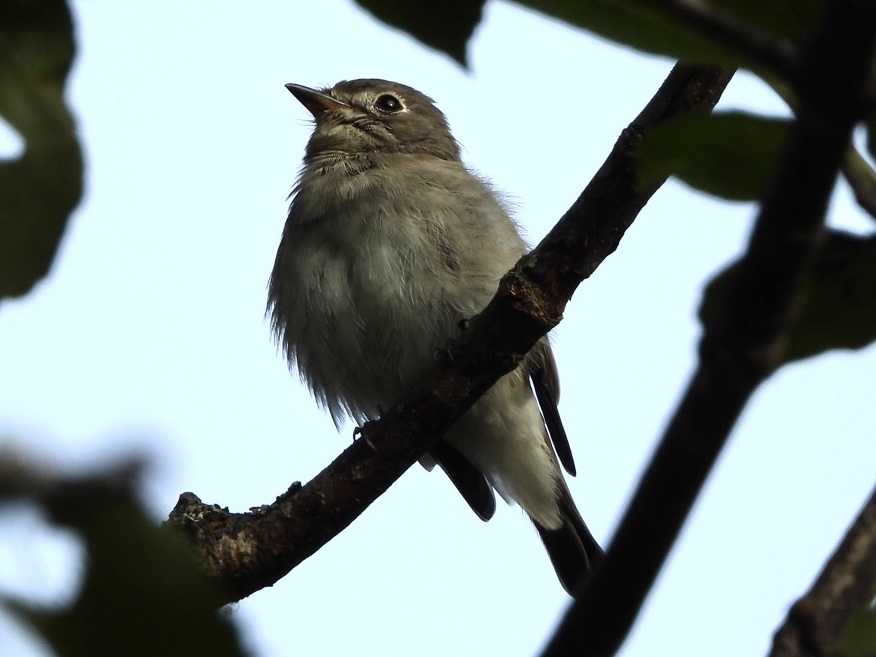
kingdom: Animalia
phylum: Chordata
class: Aves
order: Passeriformes
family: Muscicapidae
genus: Muscicapa
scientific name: Muscicapa latirostris
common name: Asian brown flycatcher
